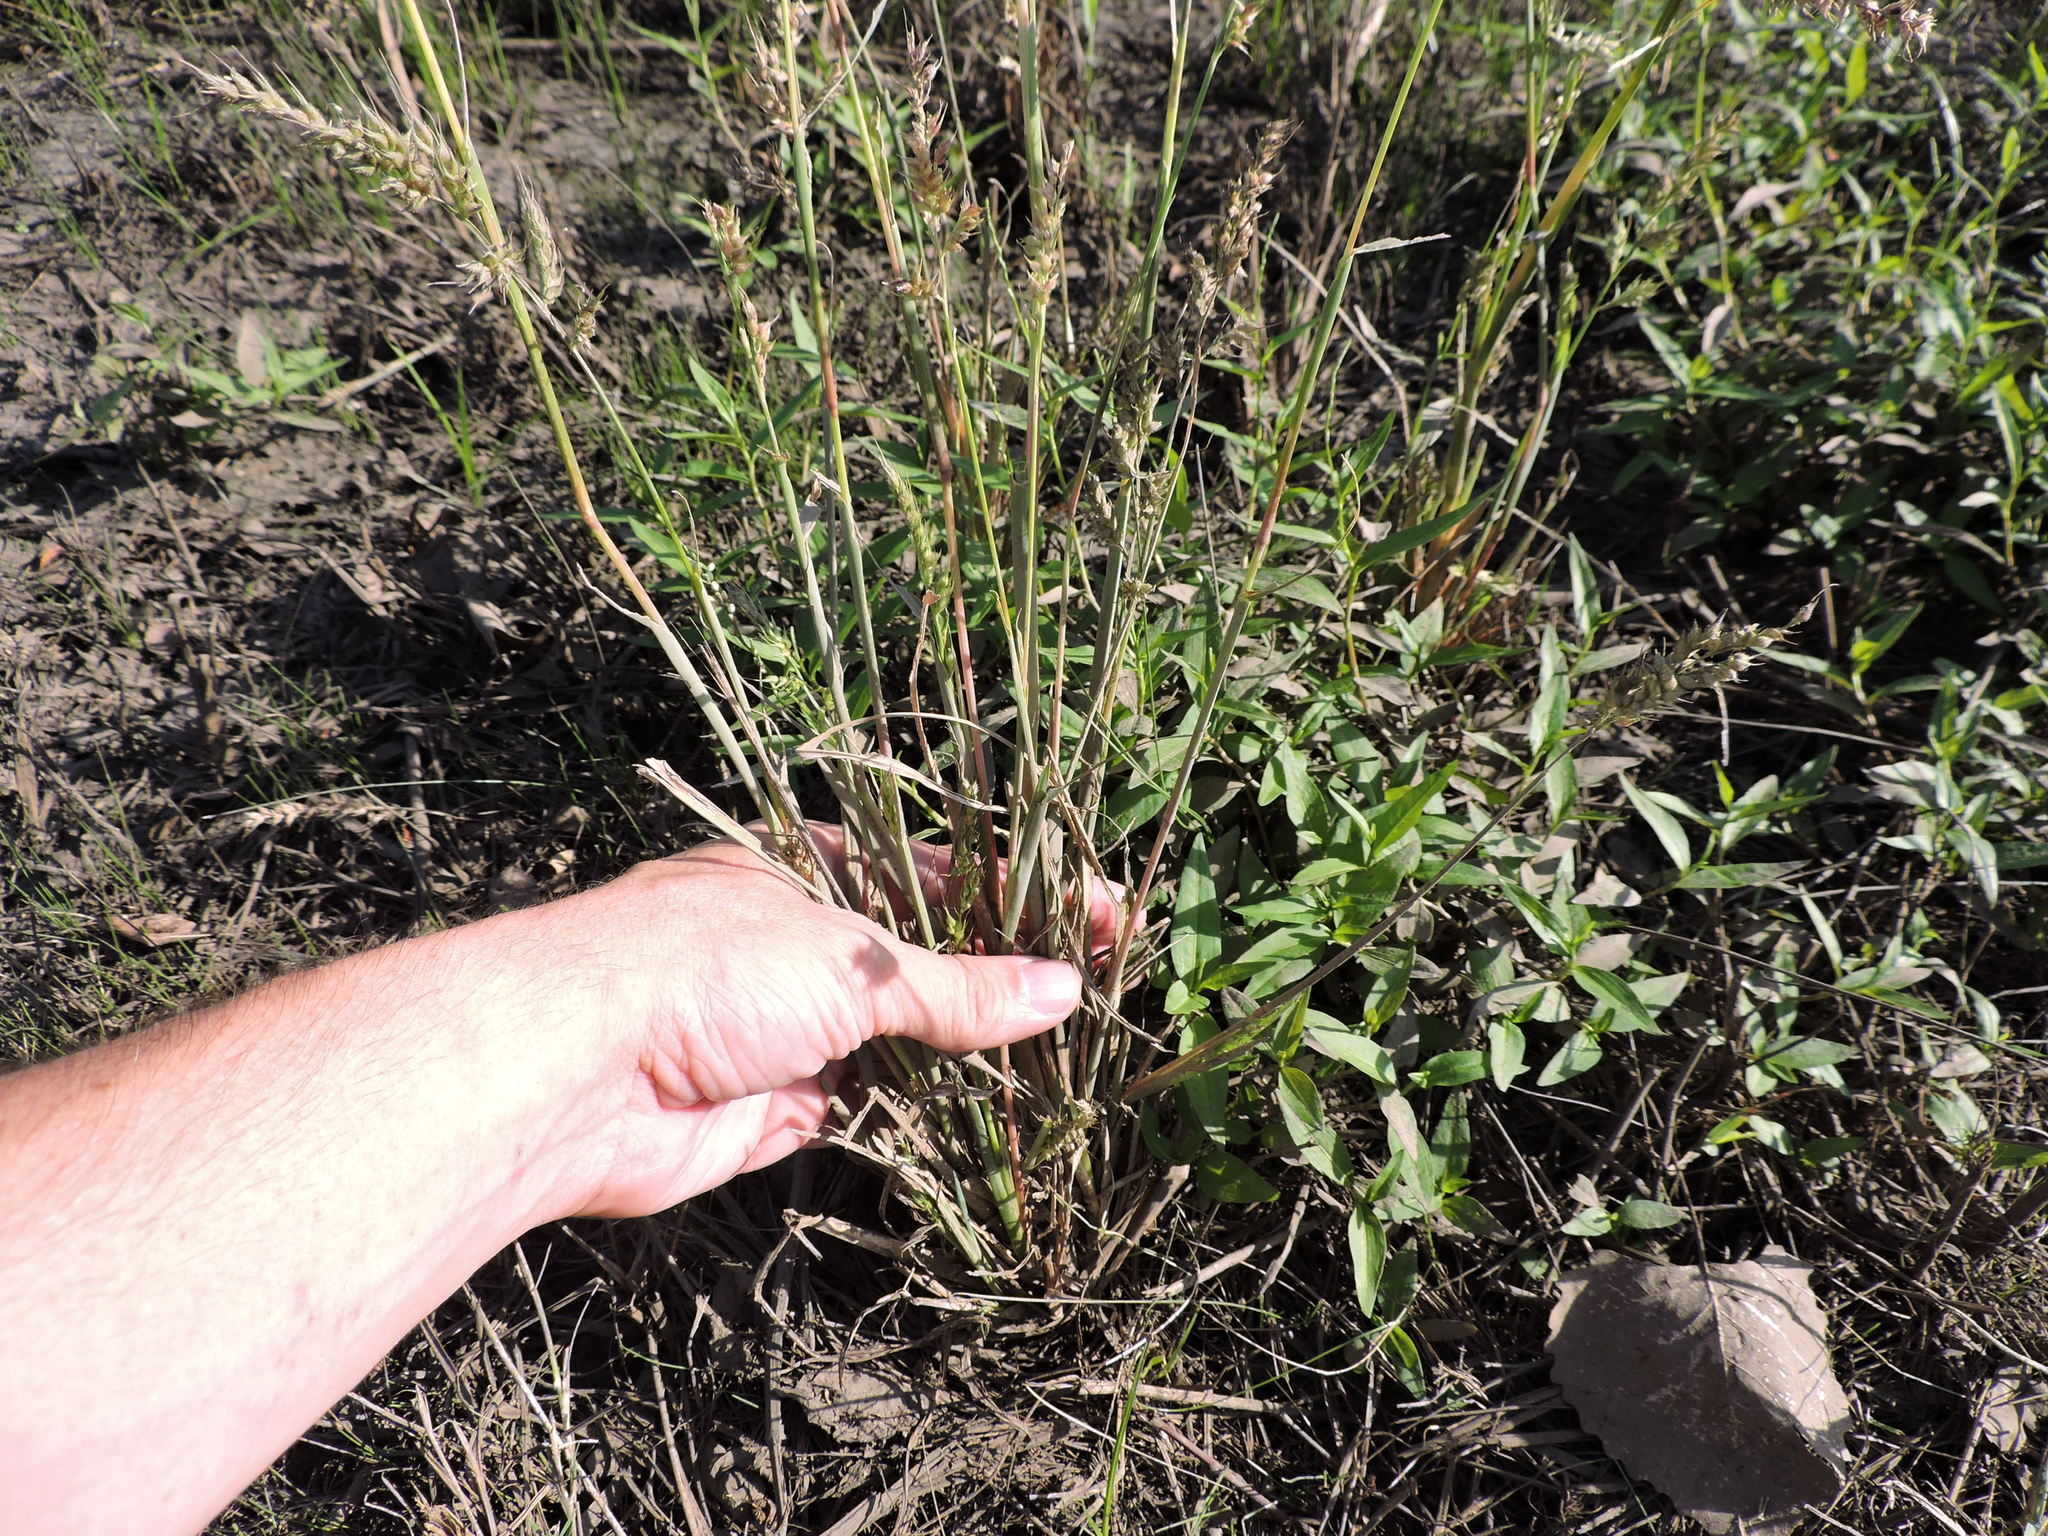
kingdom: Plantae
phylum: Tracheophyta
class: Liliopsida
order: Poales
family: Poaceae
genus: Echinochloa
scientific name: Echinochloa crus-galli
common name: Cockspur
